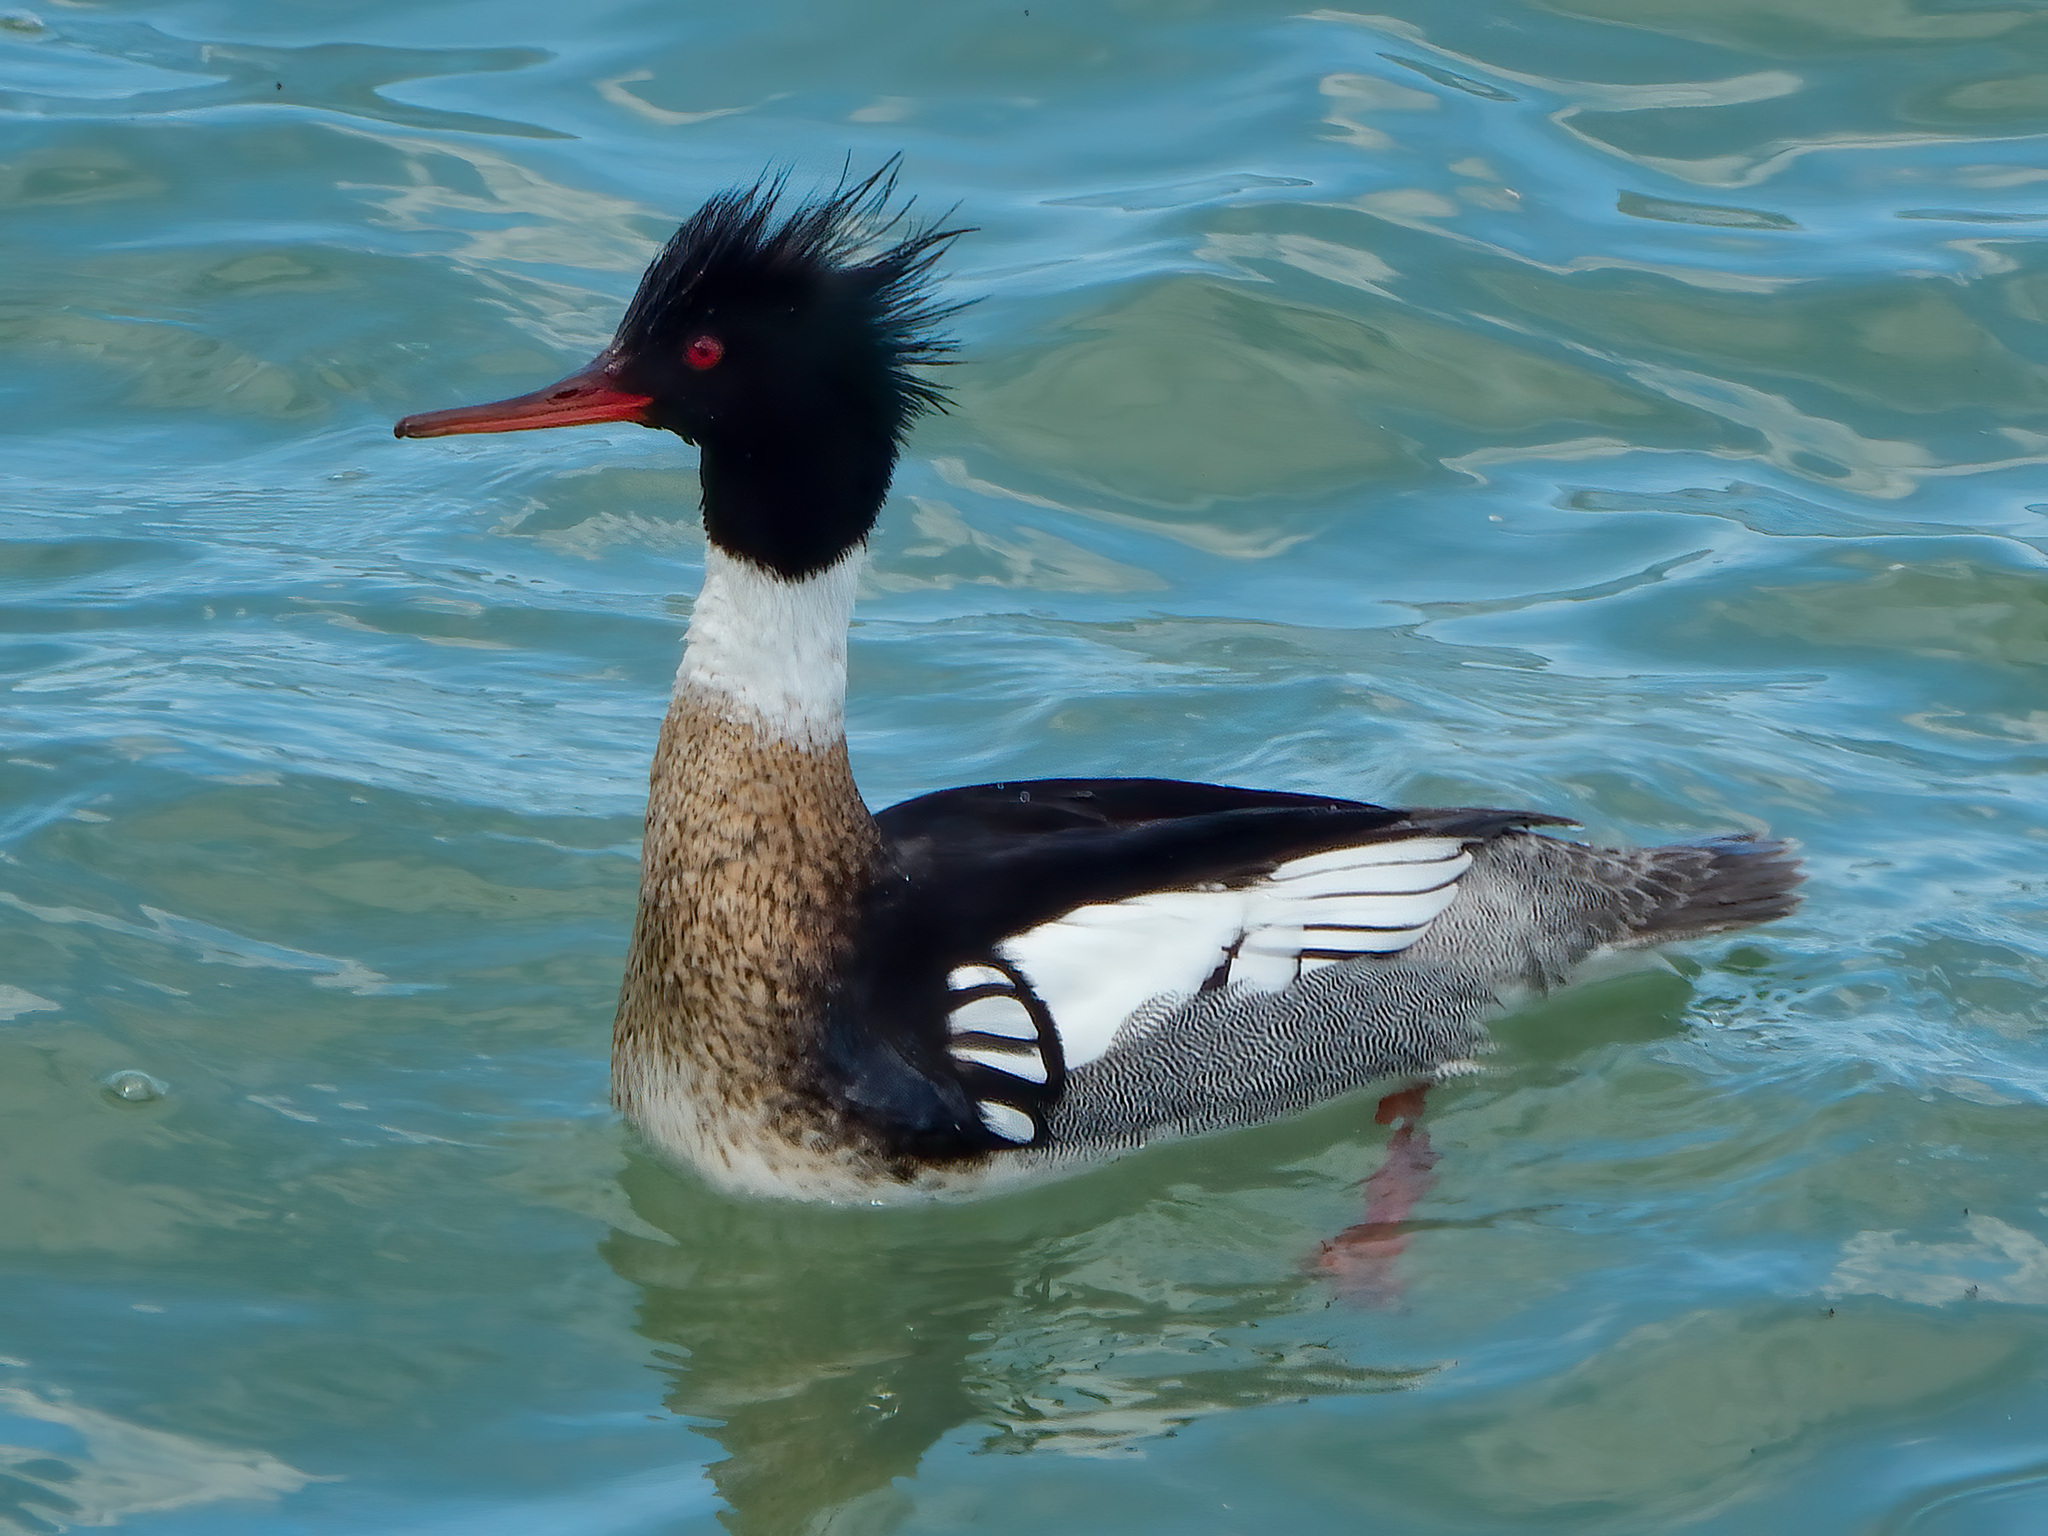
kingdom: Animalia
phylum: Chordata
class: Aves
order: Anseriformes
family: Anatidae
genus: Mergus
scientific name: Mergus serrator
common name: Red-breasted merganser
